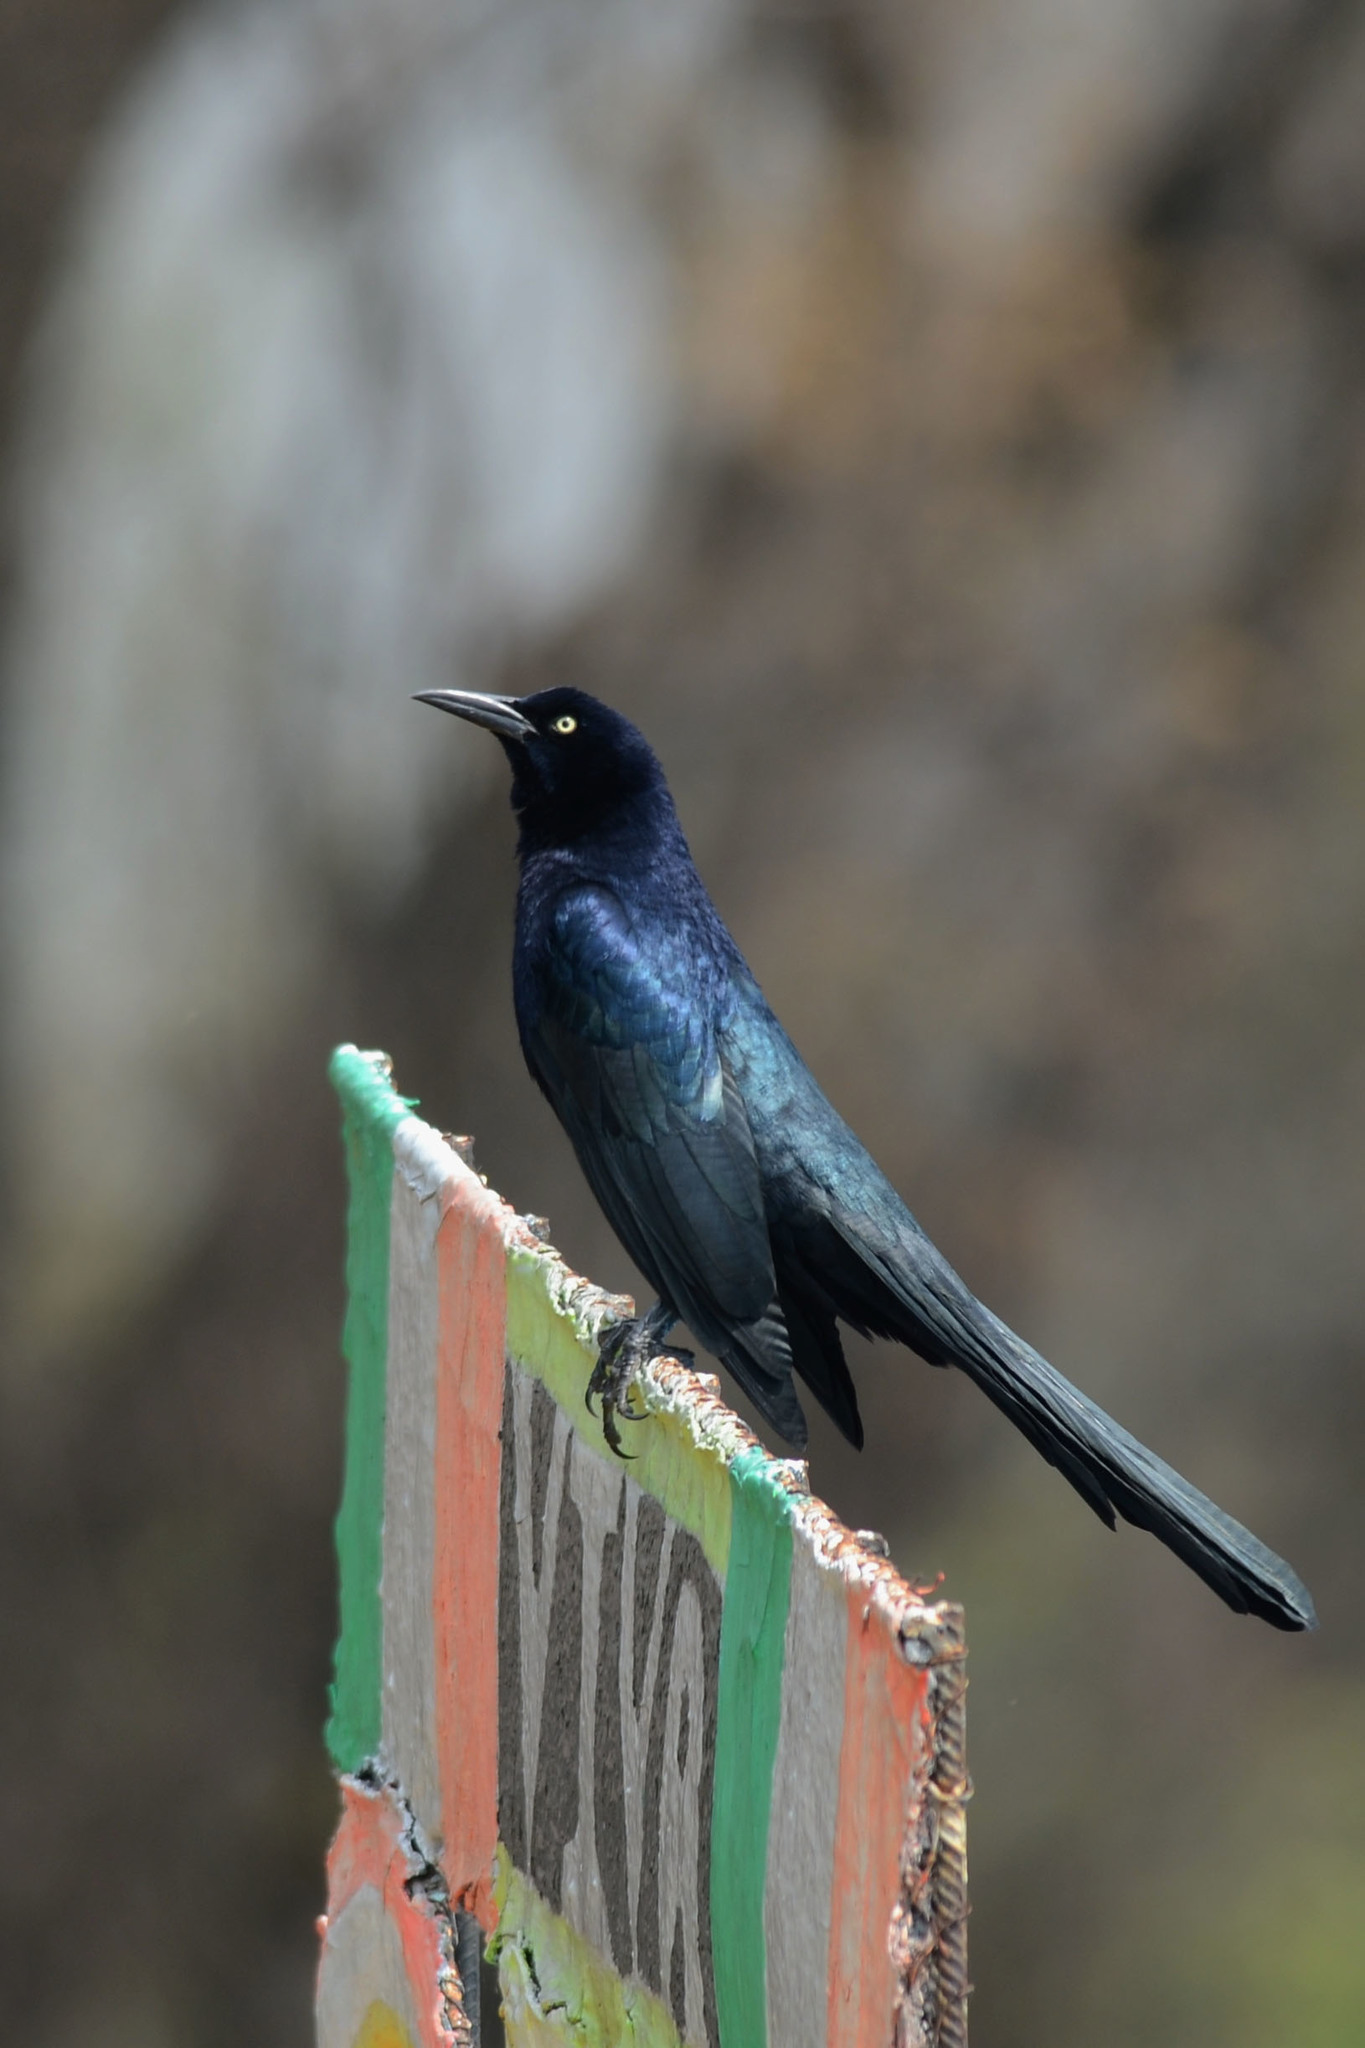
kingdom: Animalia
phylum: Chordata
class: Aves
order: Passeriformes
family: Icteridae
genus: Quiscalus
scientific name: Quiscalus mexicanus
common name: Great-tailed grackle
